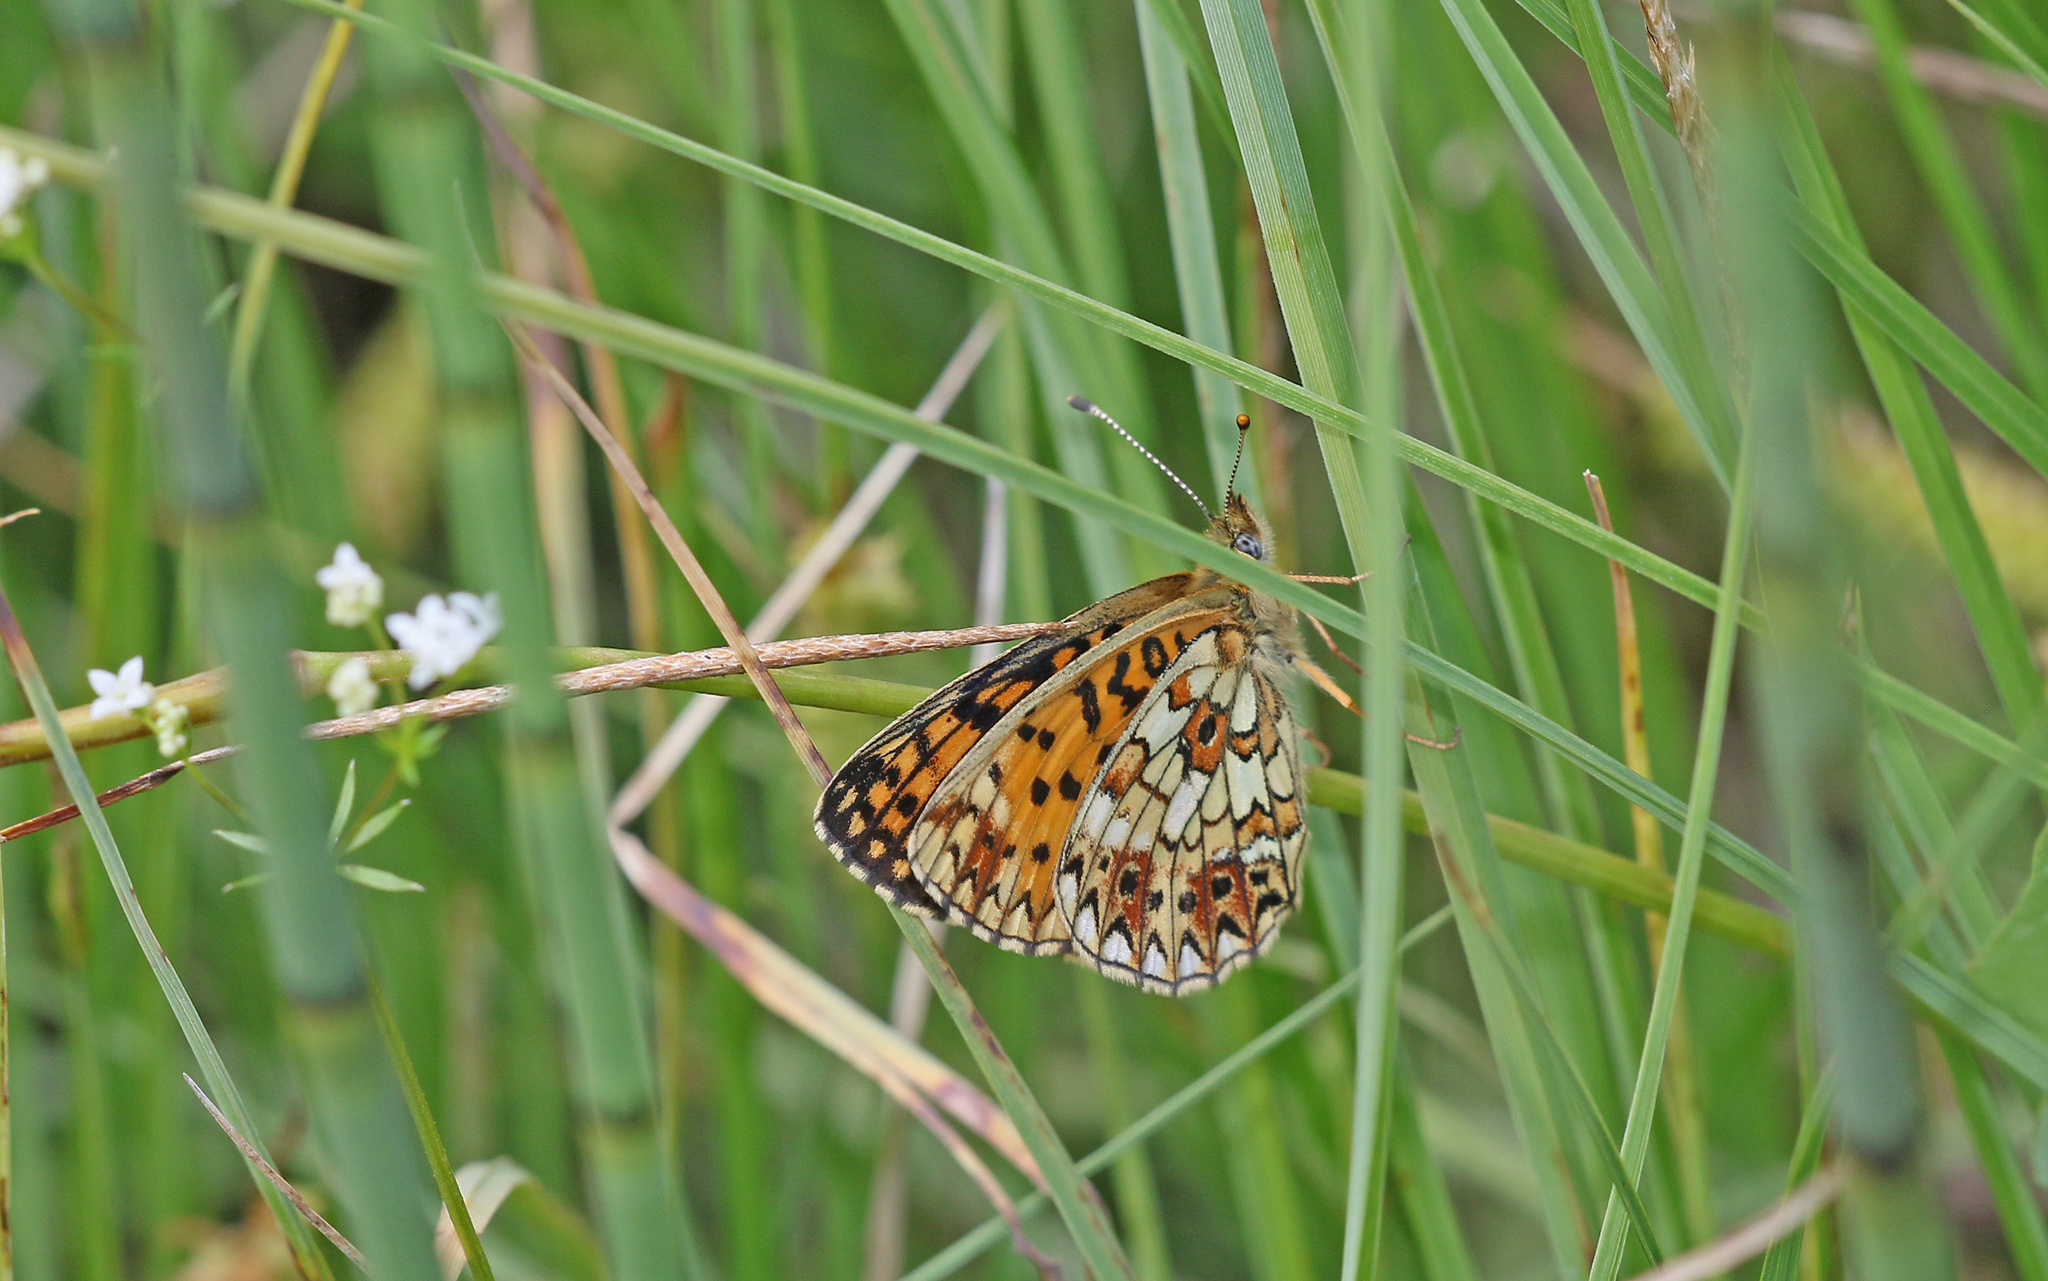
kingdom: Animalia
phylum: Arthropoda
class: Insecta
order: Lepidoptera
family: Nymphalidae
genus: Boloria
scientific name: Boloria selene
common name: Small pearl-bordered fritillary
